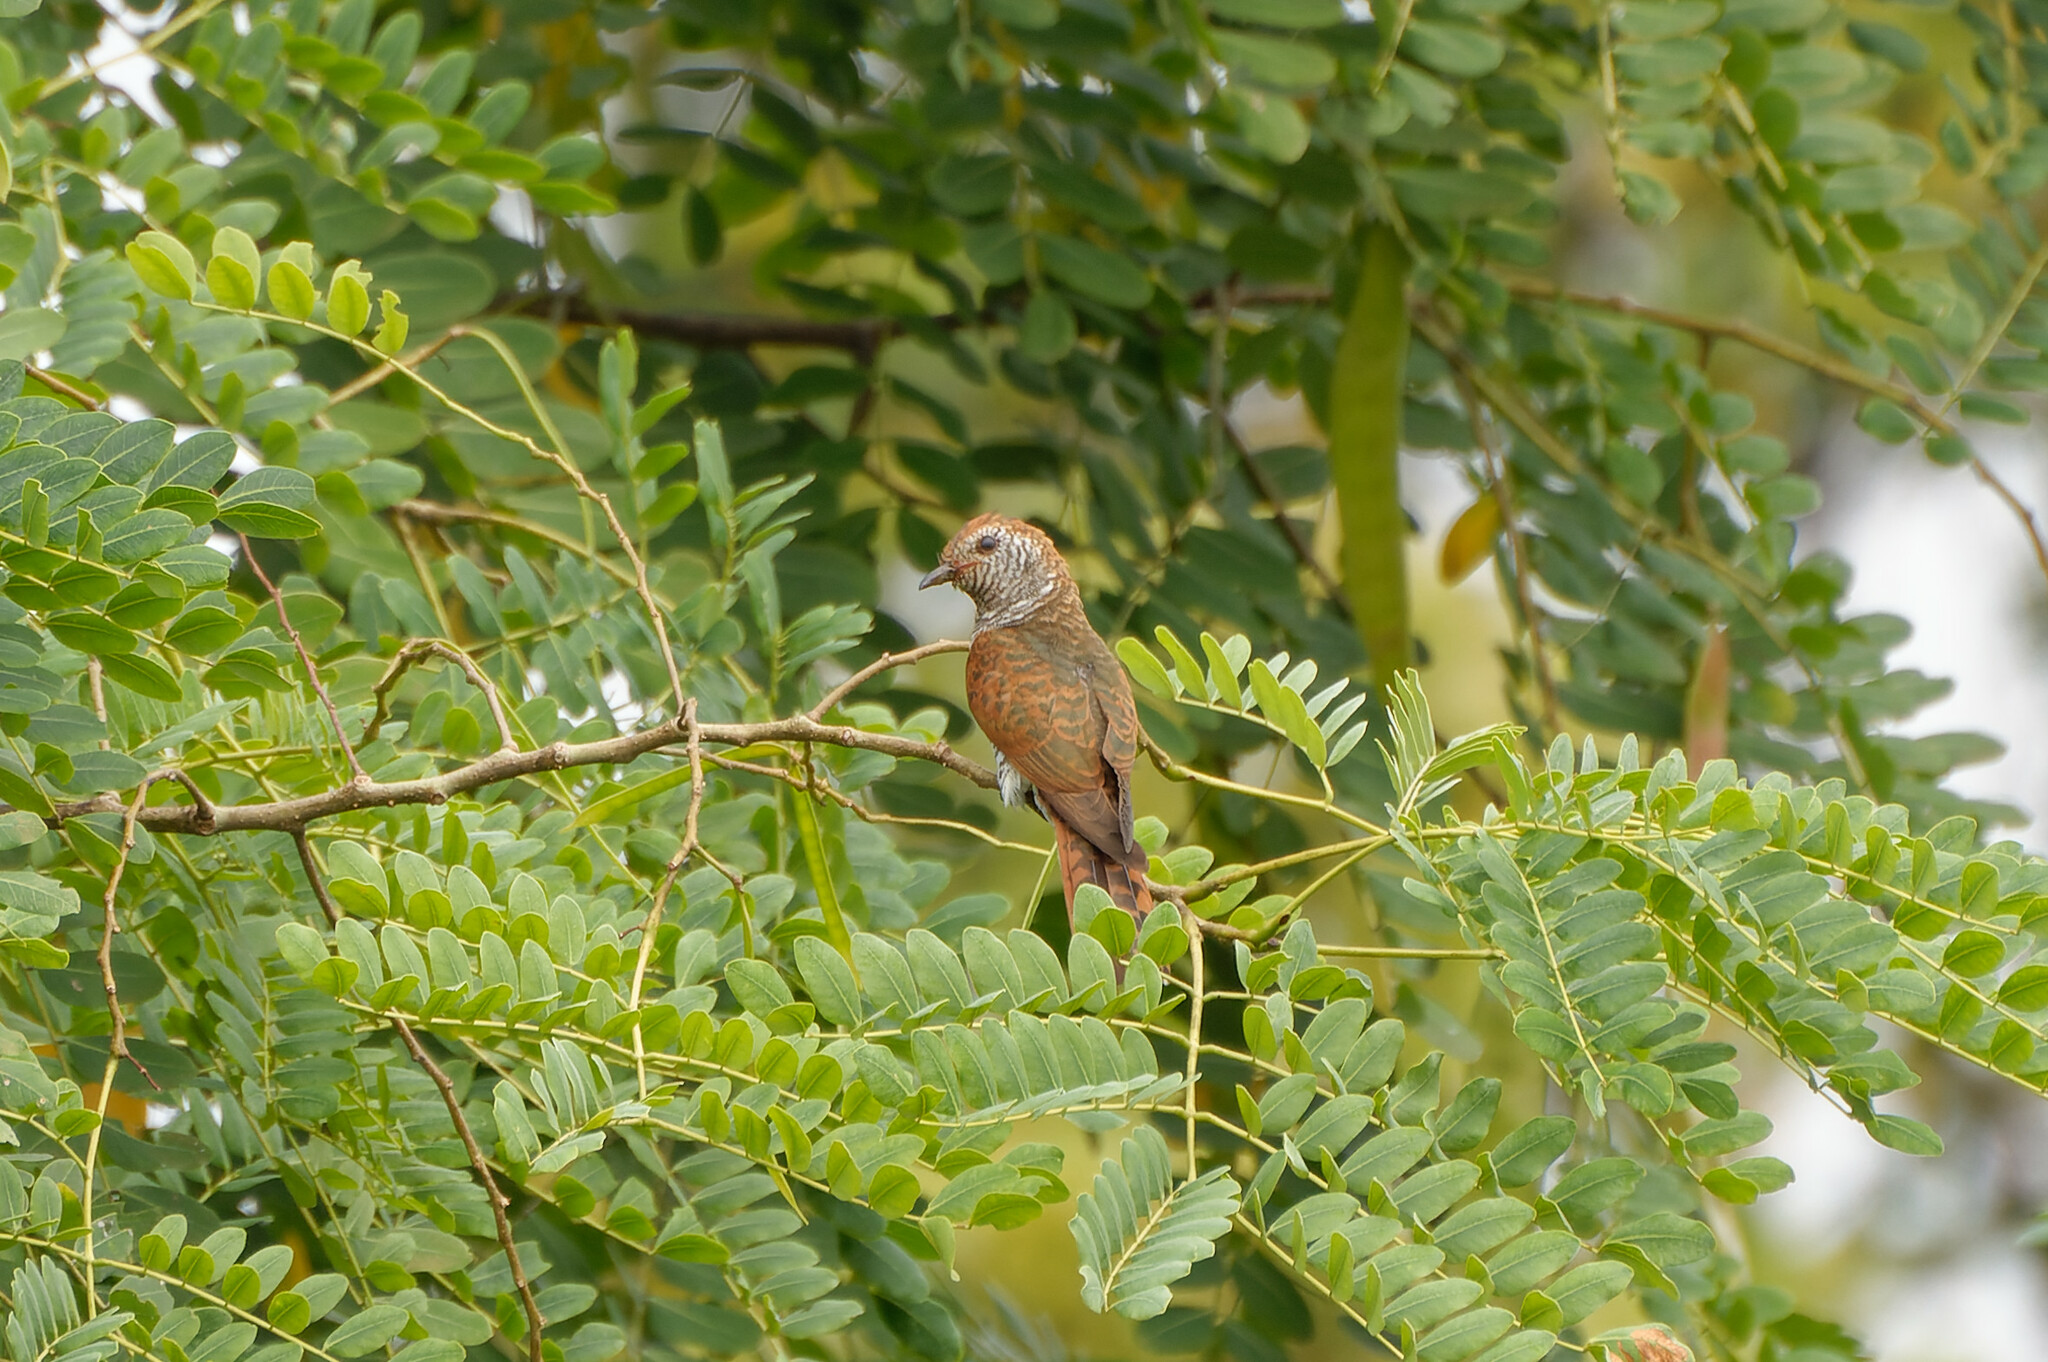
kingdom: Animalia
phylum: Chordata
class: Aves
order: Cuculiformes
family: Cuculidae
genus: Chrysococcyx
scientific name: Chrysococcyx xanthorhynchus
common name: Violet cuckoo
